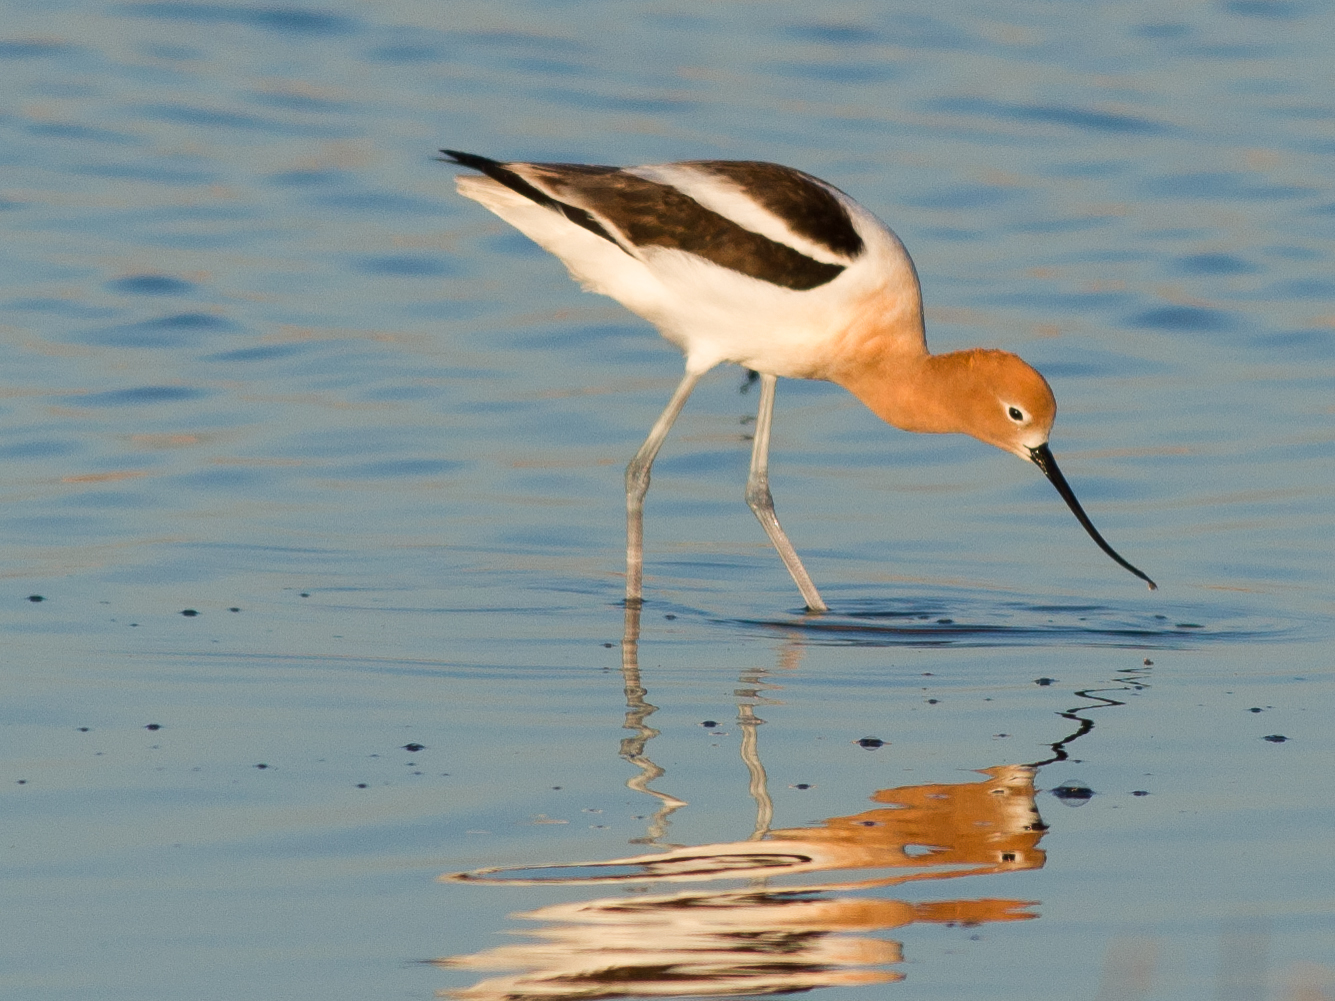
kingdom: Animalia
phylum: Chordata
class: Aves
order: Charadriiformes
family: Recurvirostridae
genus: Recurvirostra
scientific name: Recurvirostra americana
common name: American avocet
